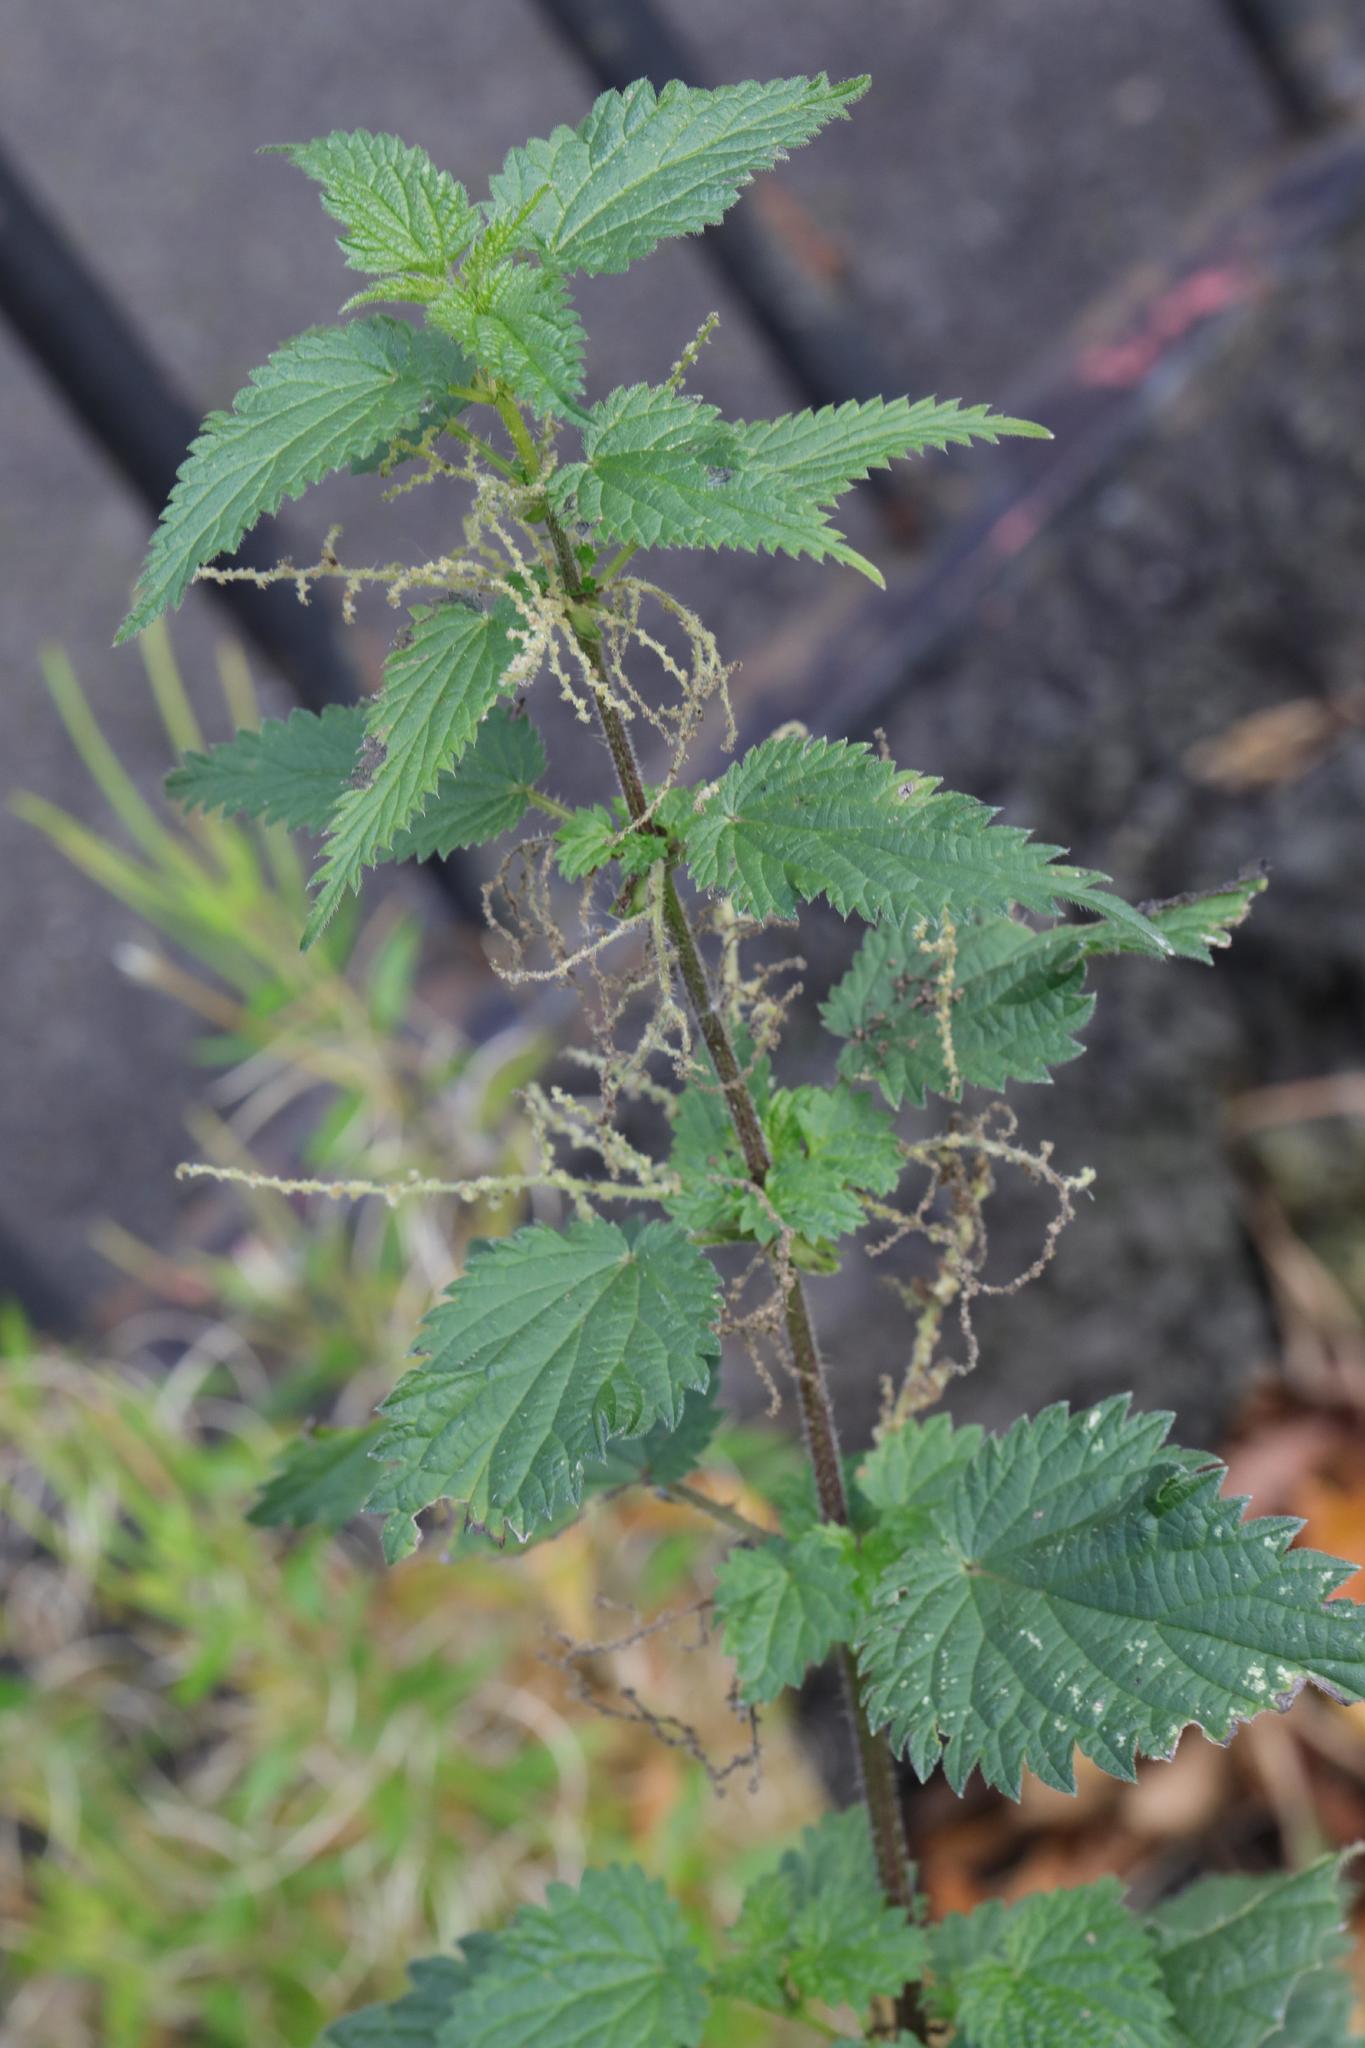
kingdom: Plantae
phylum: Tracheophyta
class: Magnoliopsida
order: Rosales
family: Urticaceae
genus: Urtica
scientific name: Urtica dioica
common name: Common nettle
